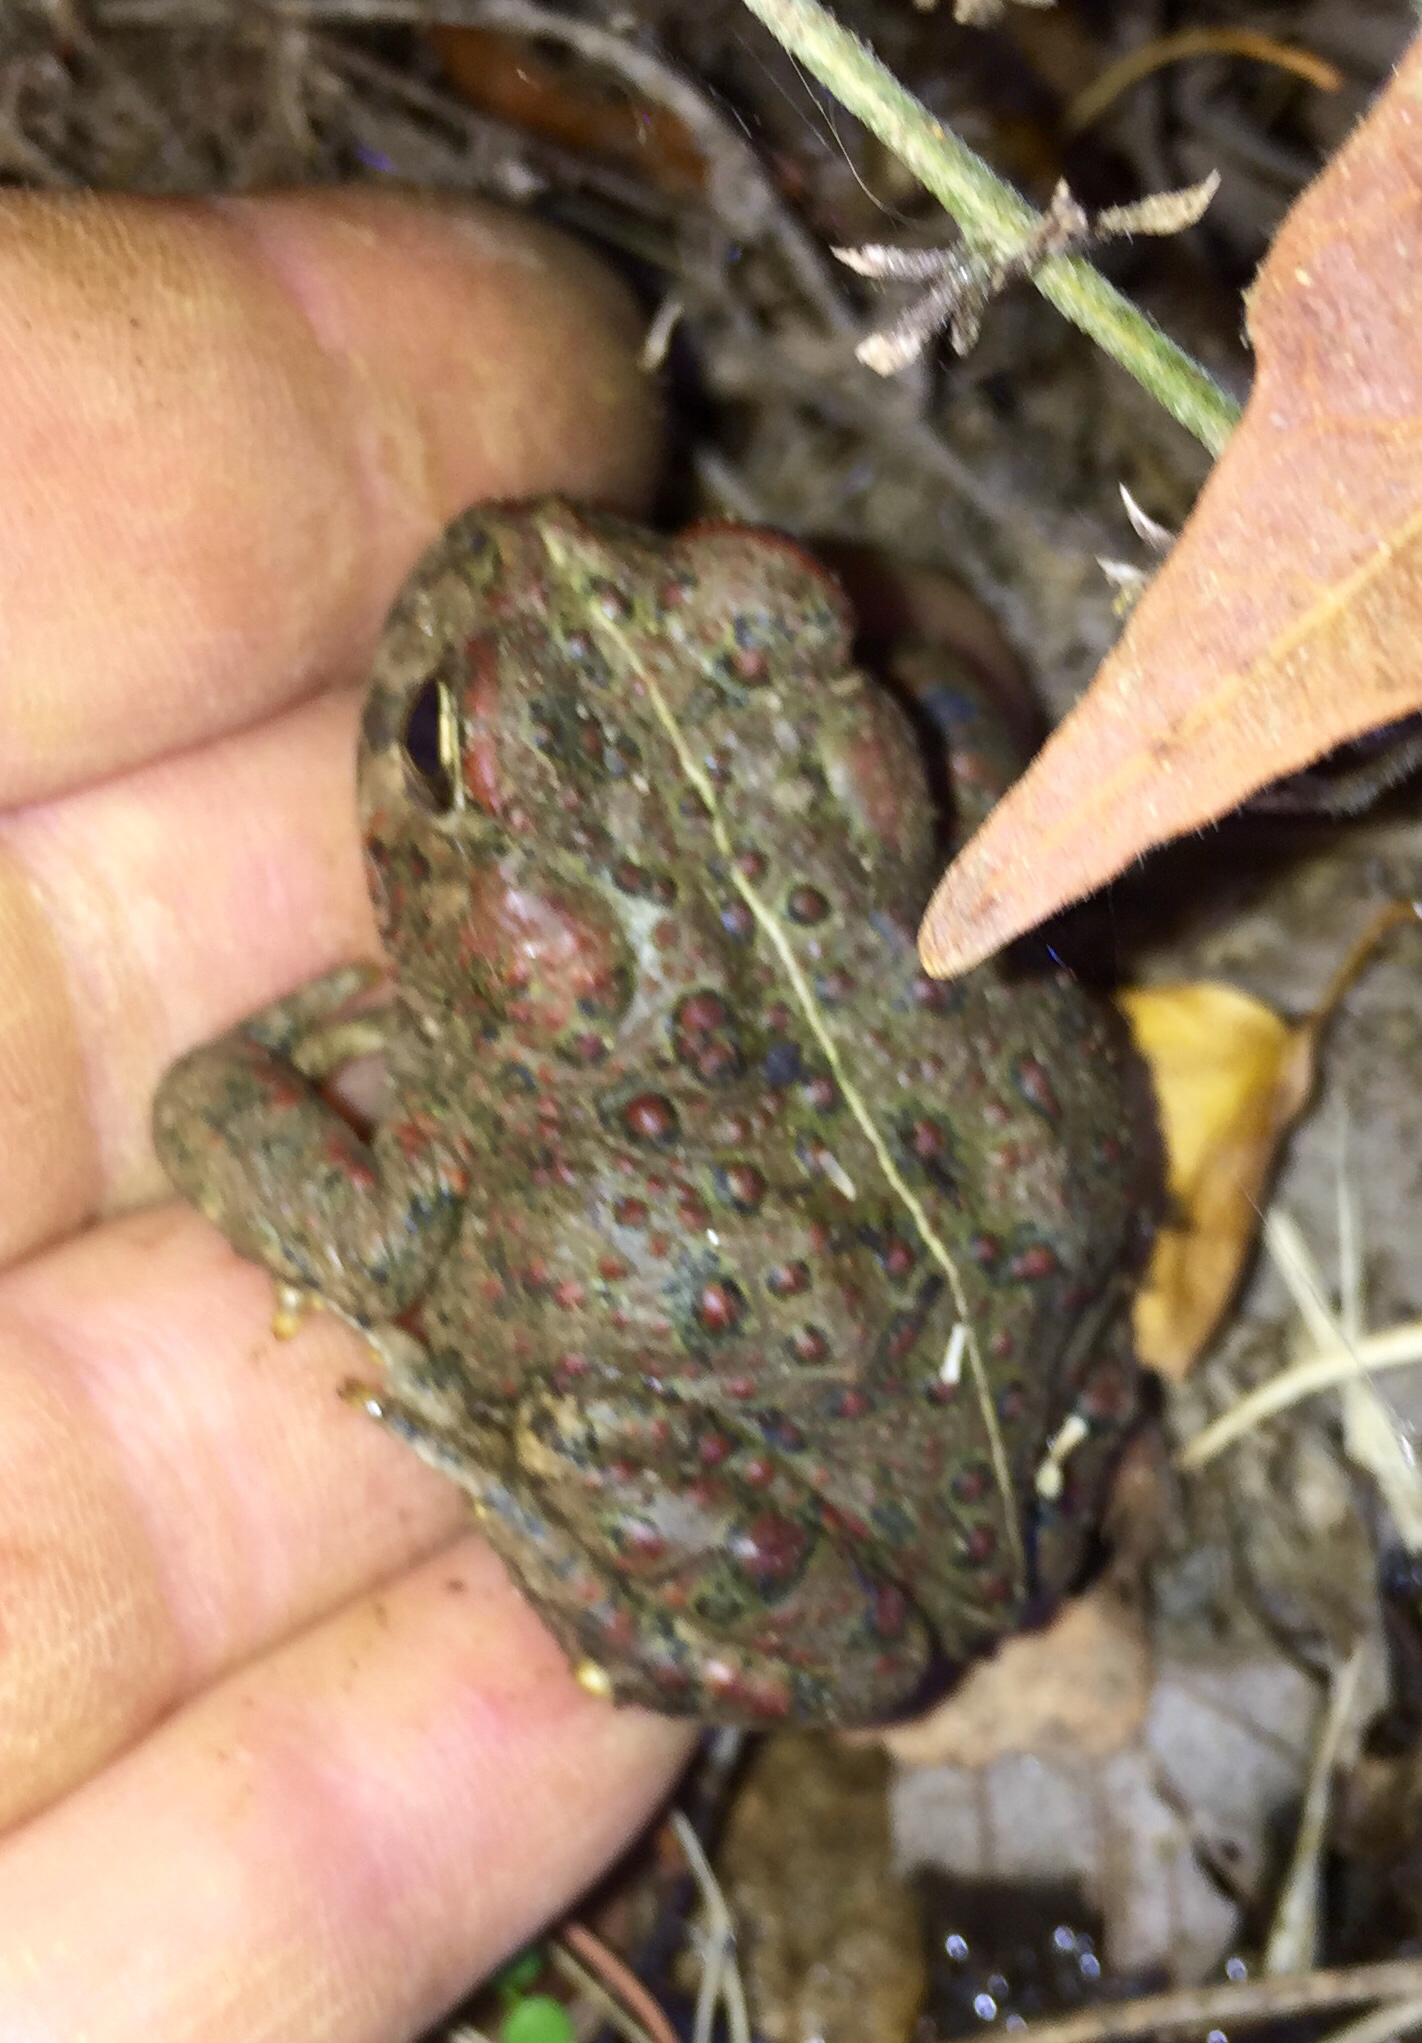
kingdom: Animalia
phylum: Chordata
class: Amphibia
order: Anura
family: Bufonidae
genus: Anaxyrus
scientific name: Anaxyrus boreas
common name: Western toad
